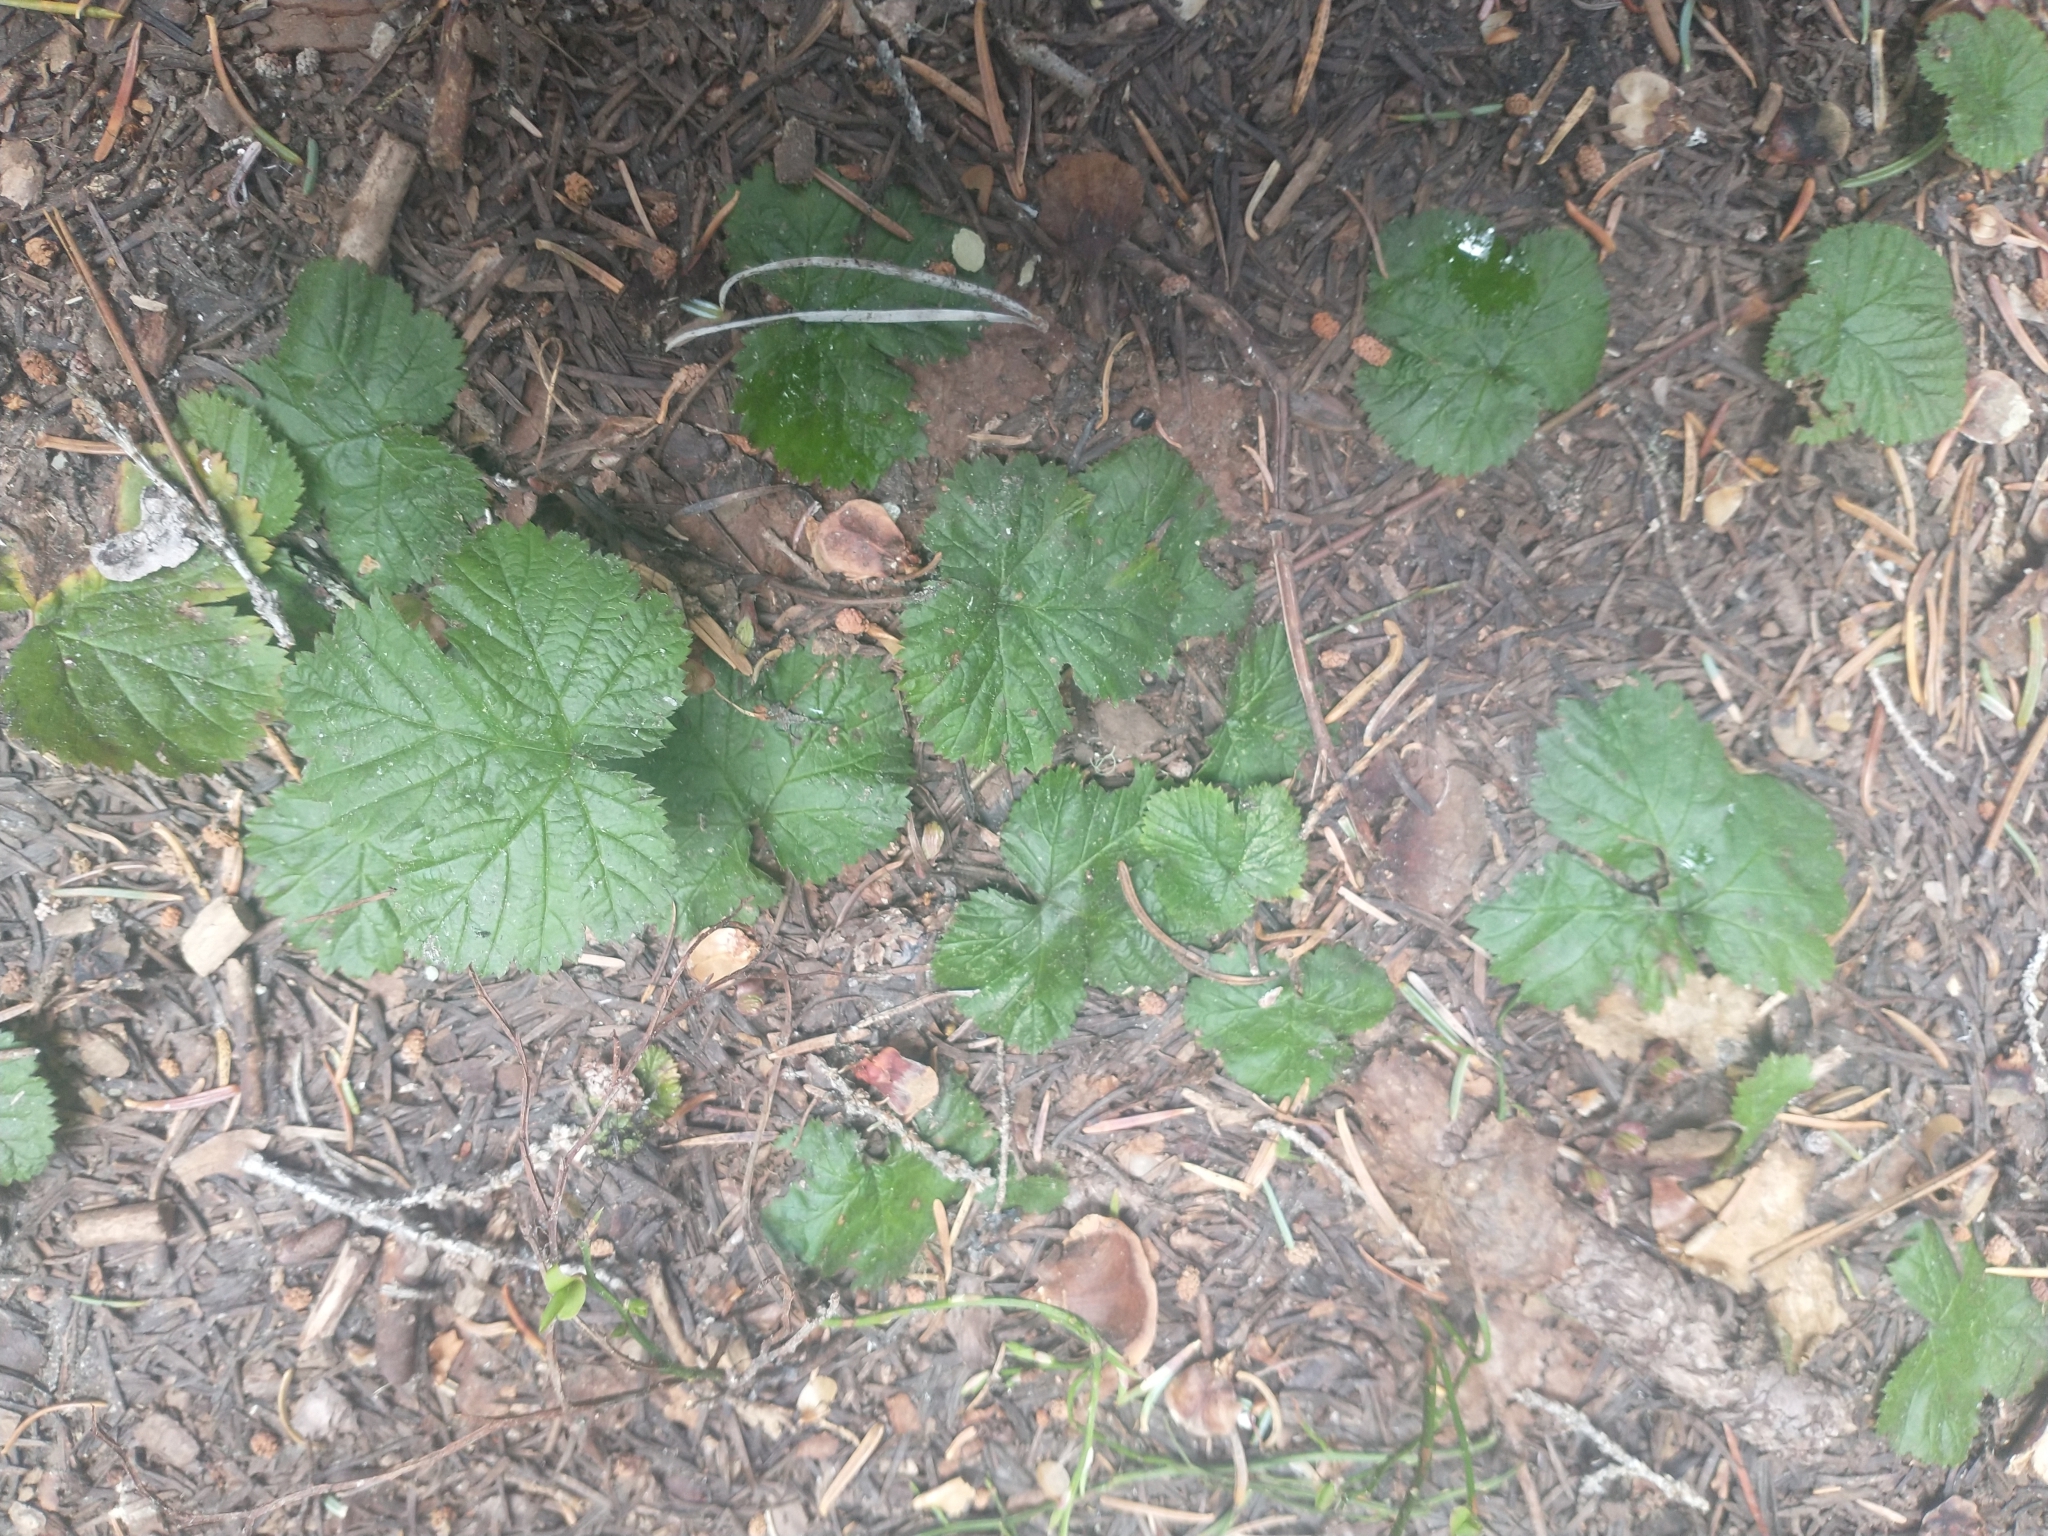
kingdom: Plantae
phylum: Tracheophyta
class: Magnoliopsida
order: Rosales
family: Rosaceae
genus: Rubus
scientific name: Rubus lasiococcus
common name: Dwarf bramble
